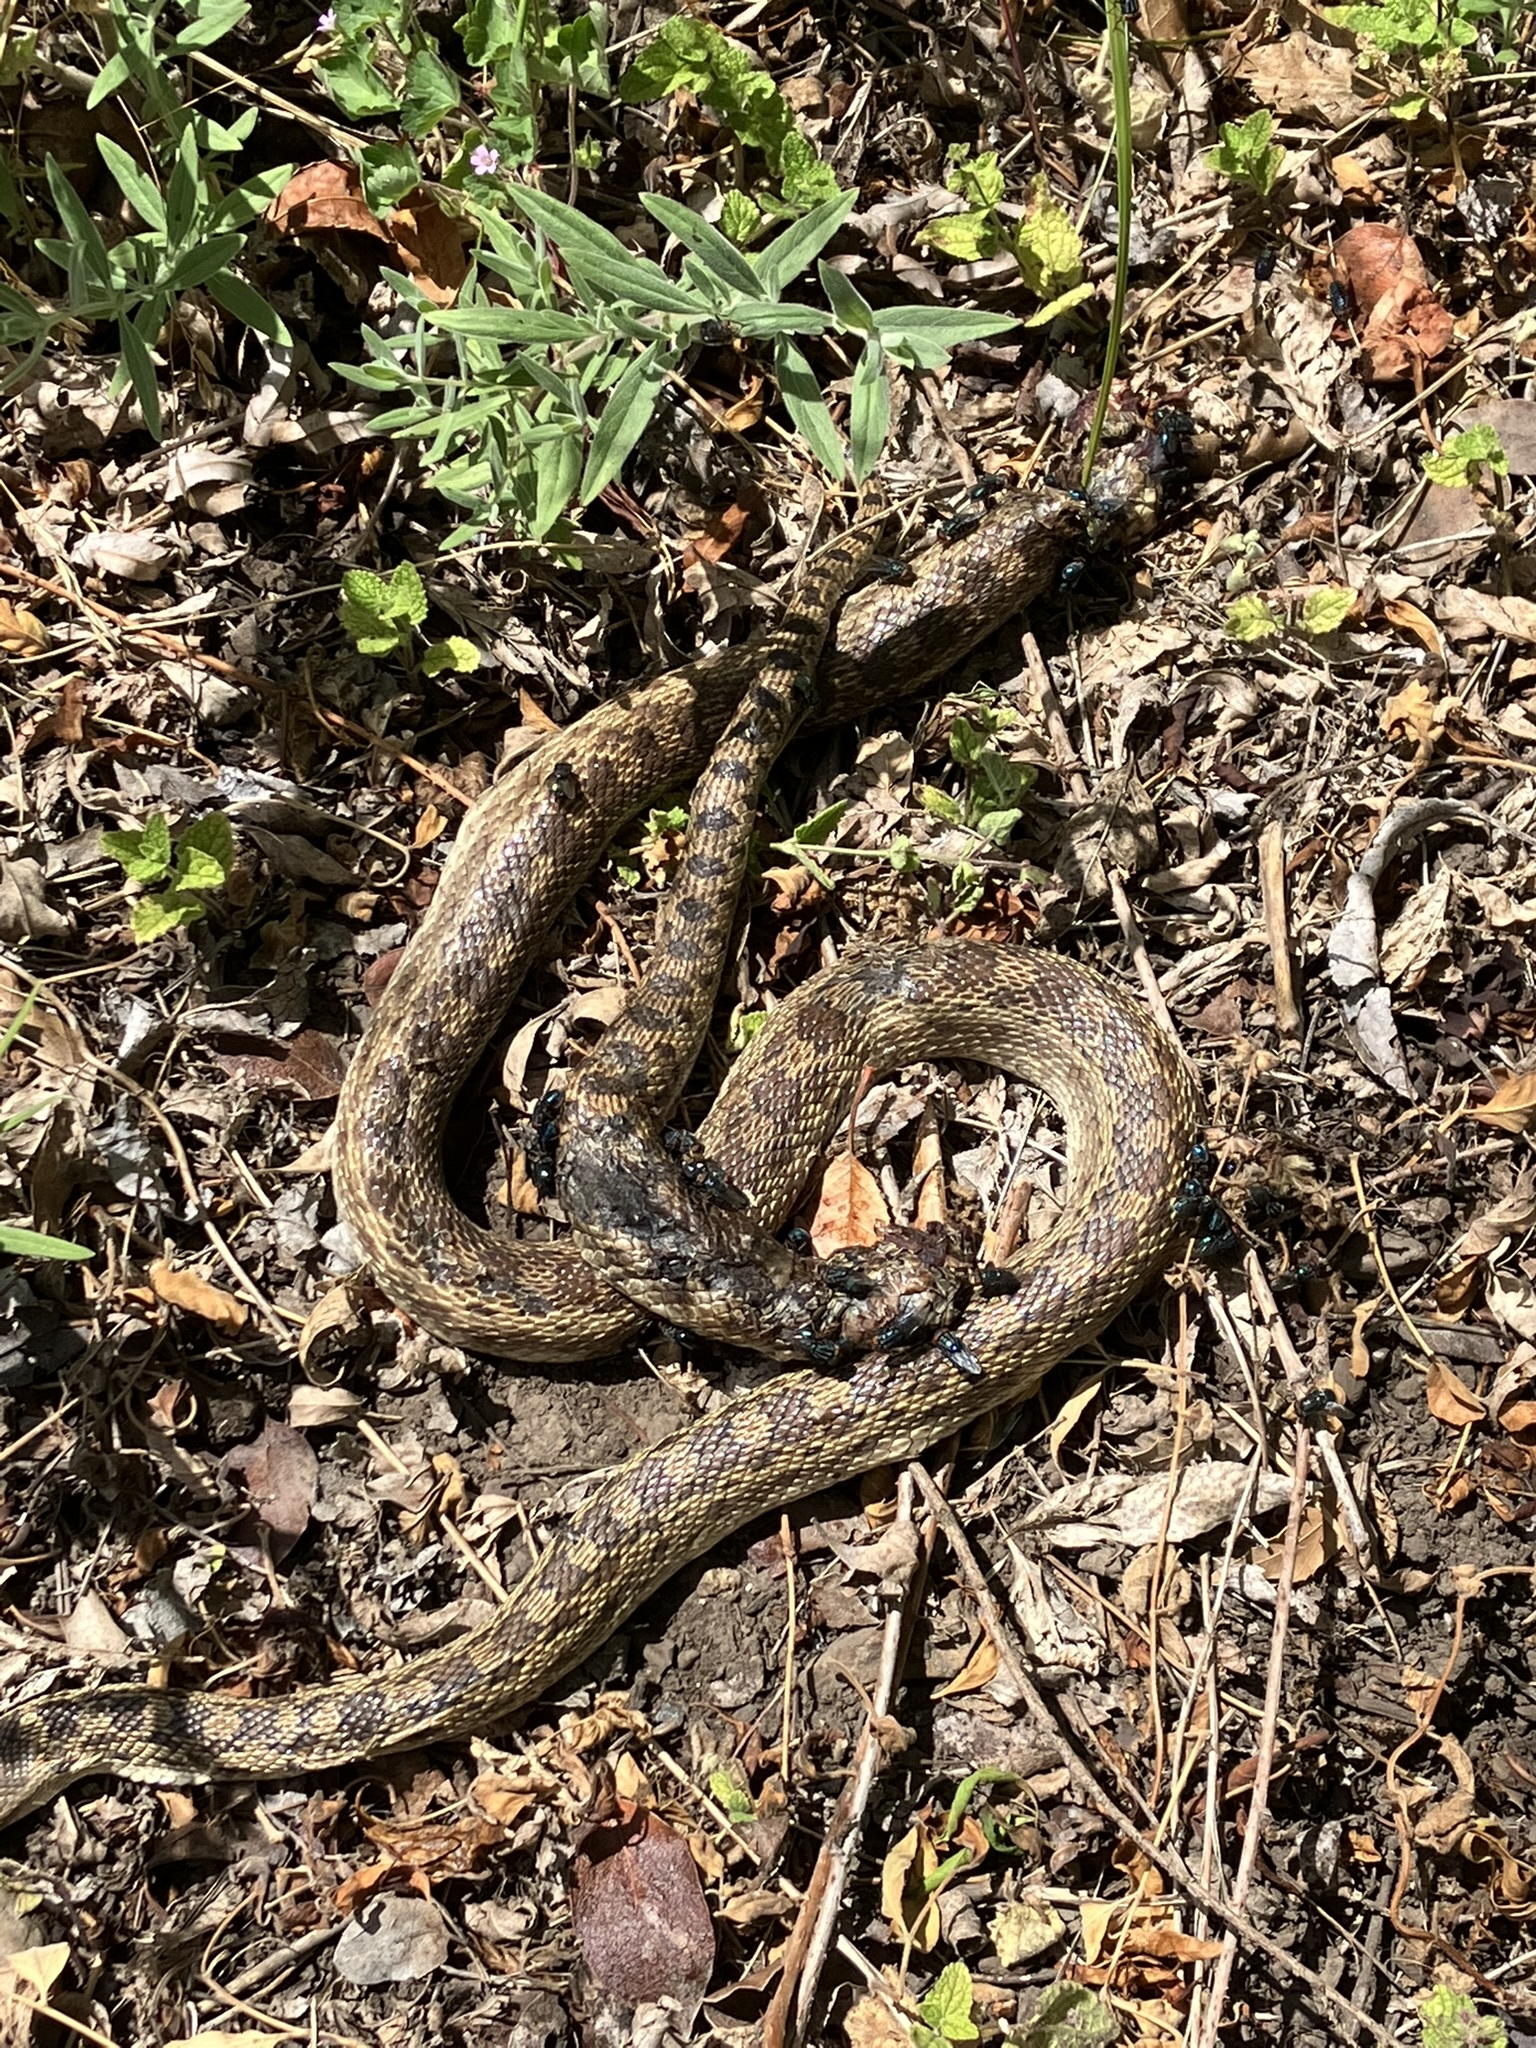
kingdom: Animalia
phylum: Chordata
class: Squamata
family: Colubridae
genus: Pituophis
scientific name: Pituophis catenifer
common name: Gopher snake
